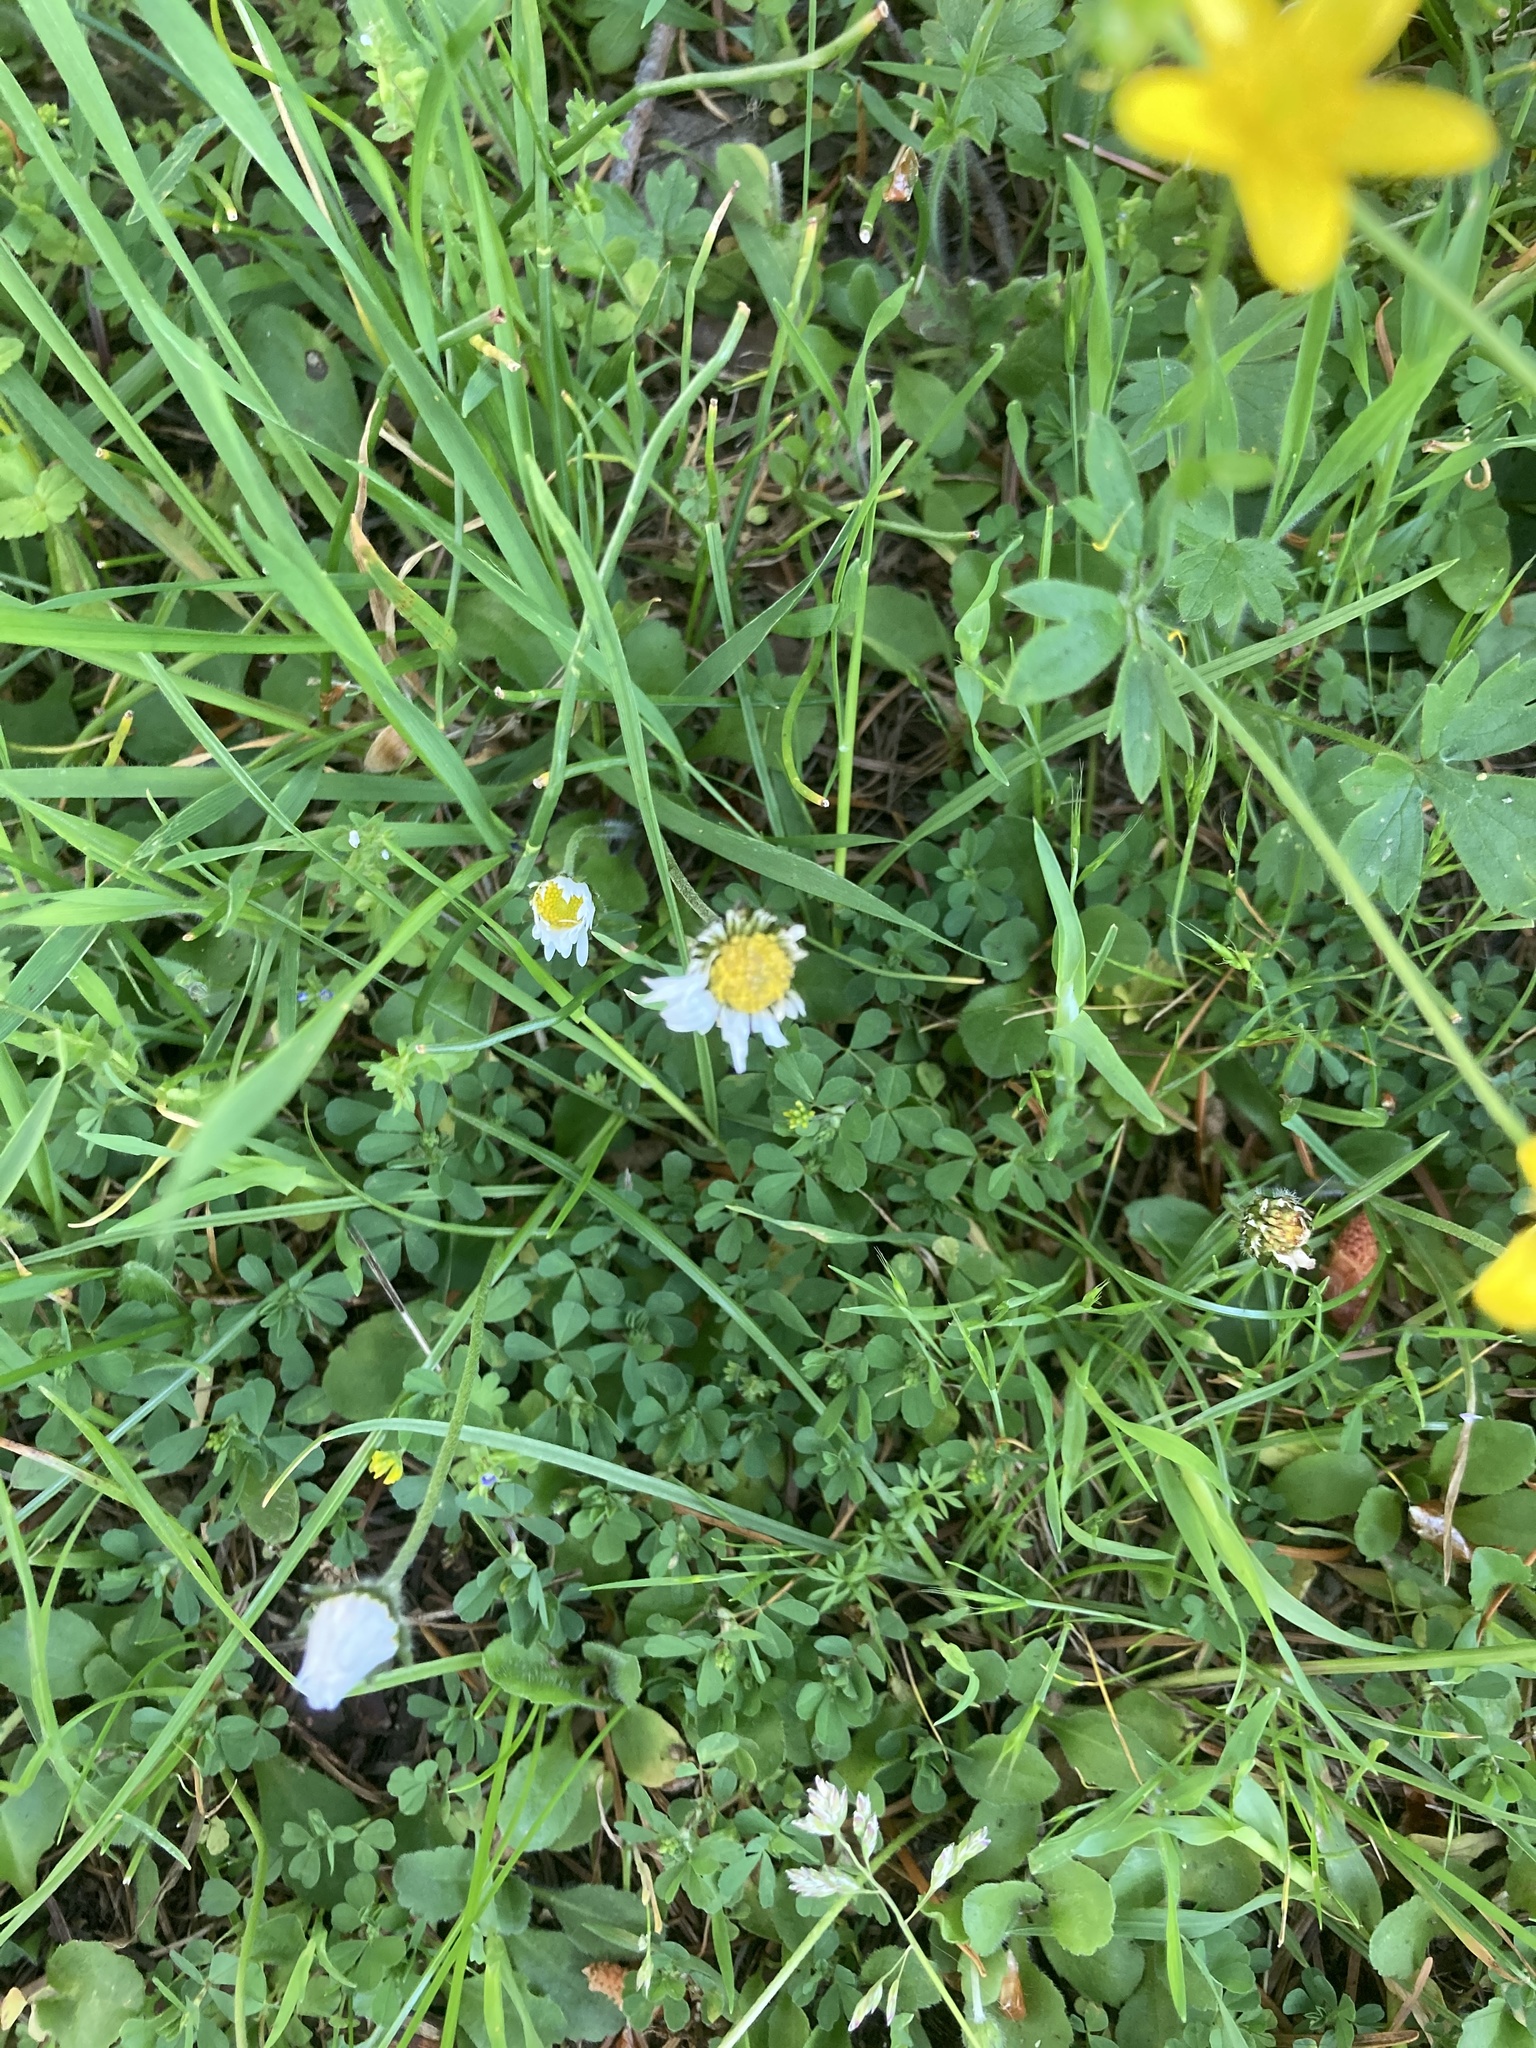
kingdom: Plantae
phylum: Tracheophyta
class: Magnoliopsida
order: Asterales
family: Asteraceae
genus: Bellis
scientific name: Bellis perennis
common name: Lawndaisy
